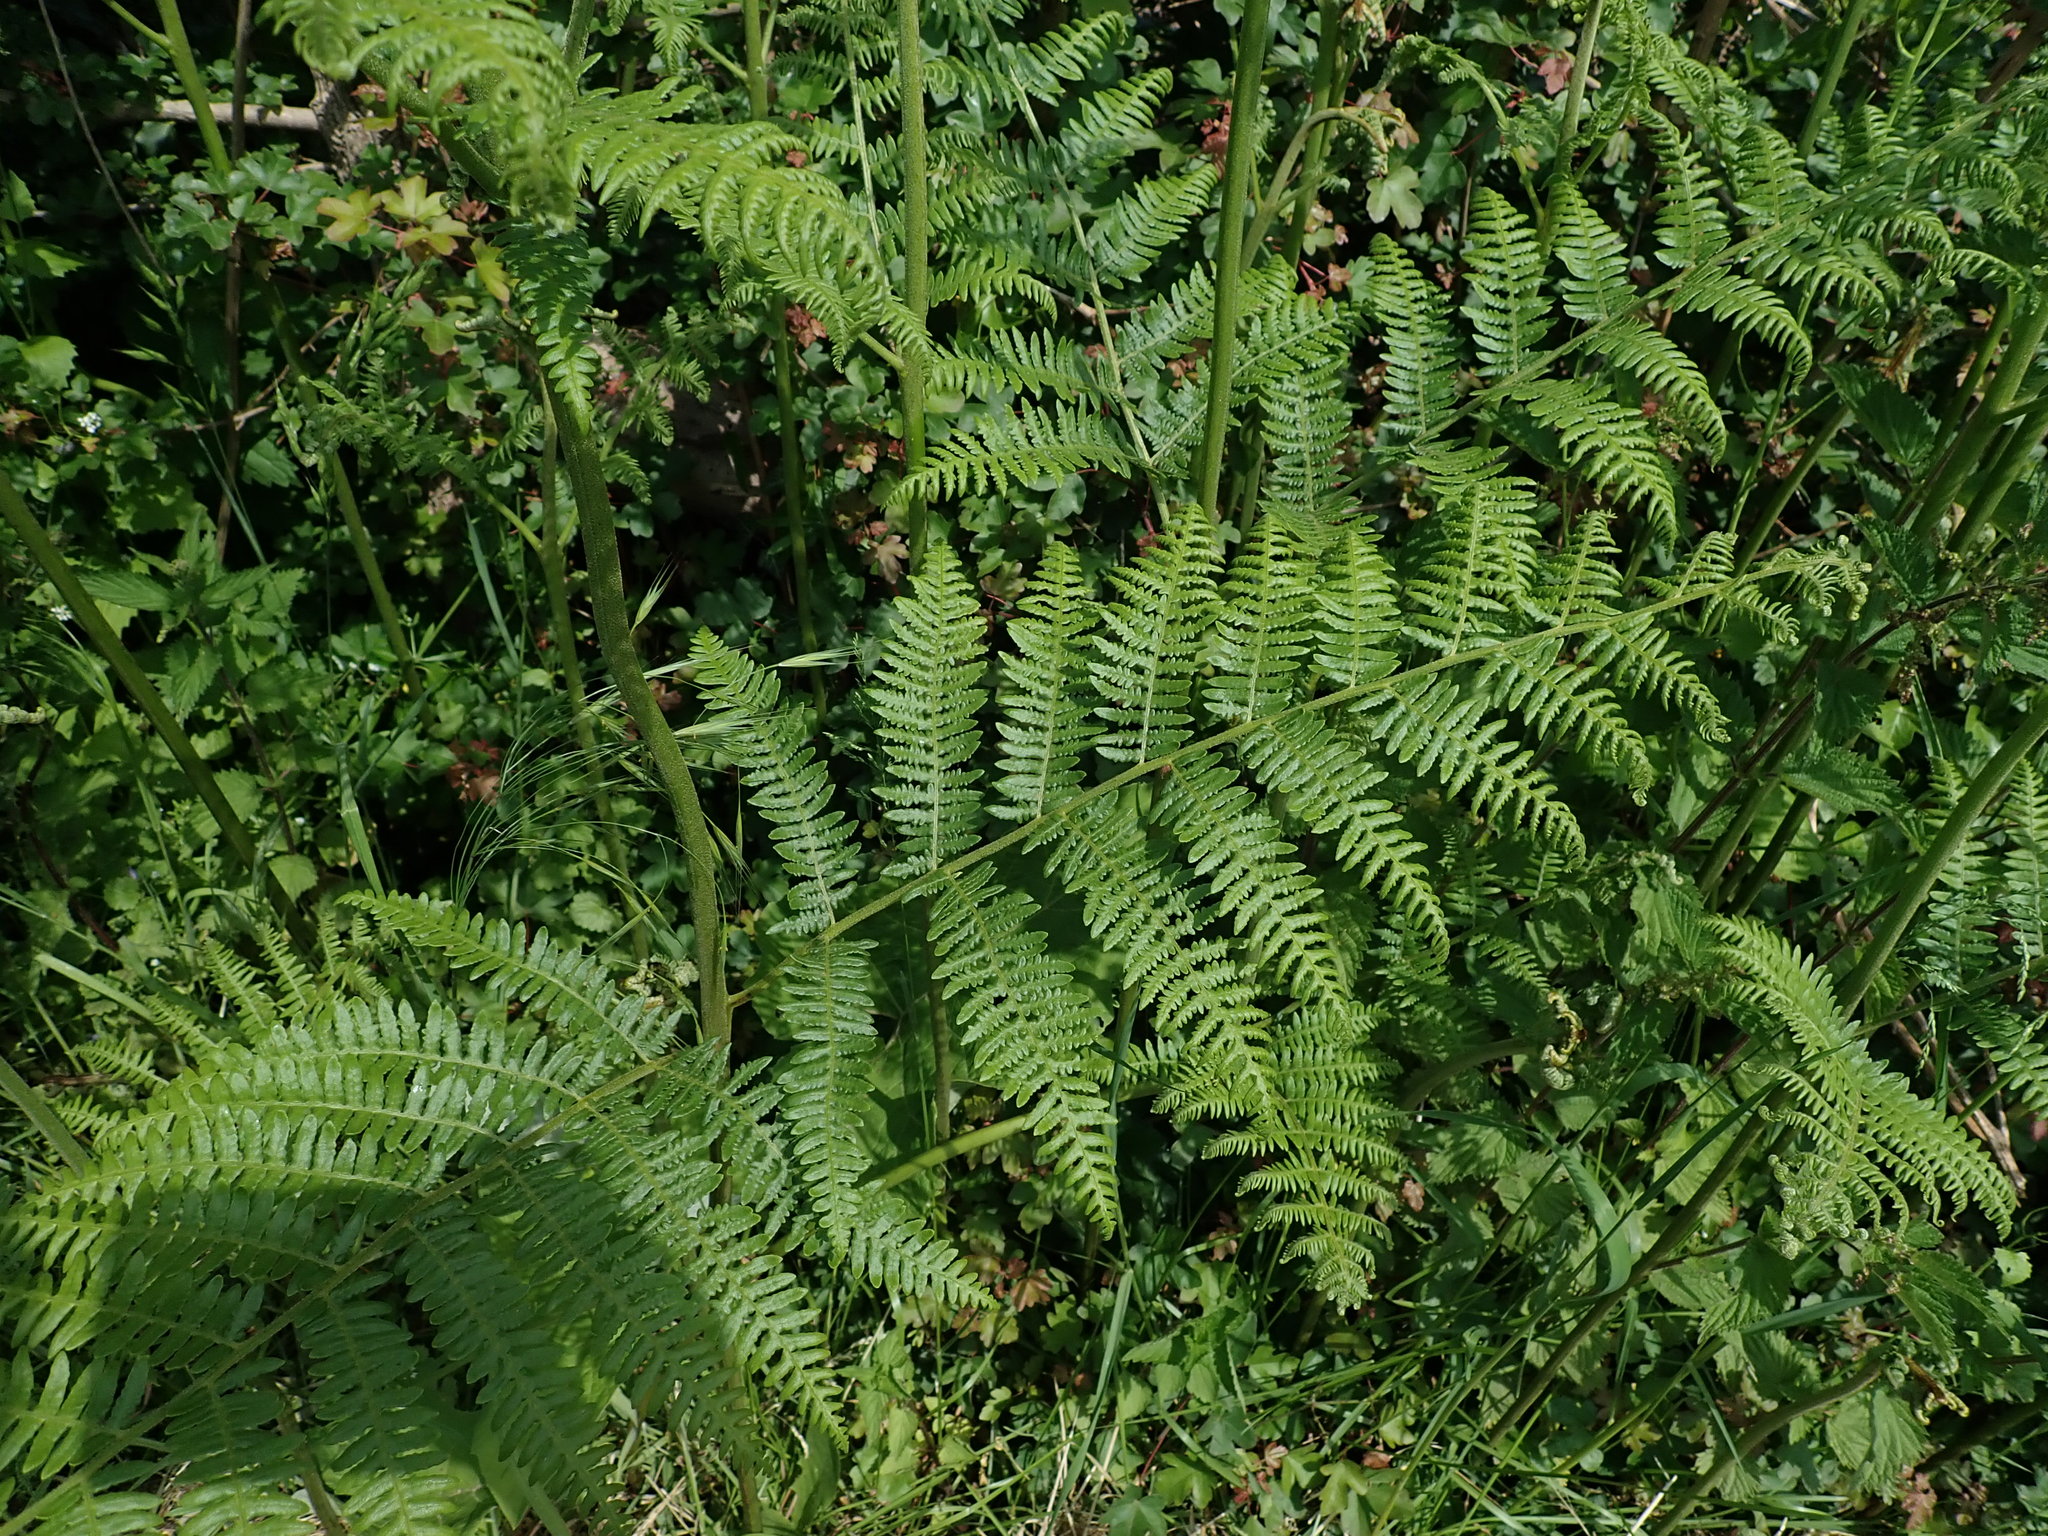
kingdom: Plantae
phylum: Tracheophyta
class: Polypodiopsida
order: Polypodiales
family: Dennstaedtiaceae
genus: Pteridium
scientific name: Pteridium aquilinum
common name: Bracken
